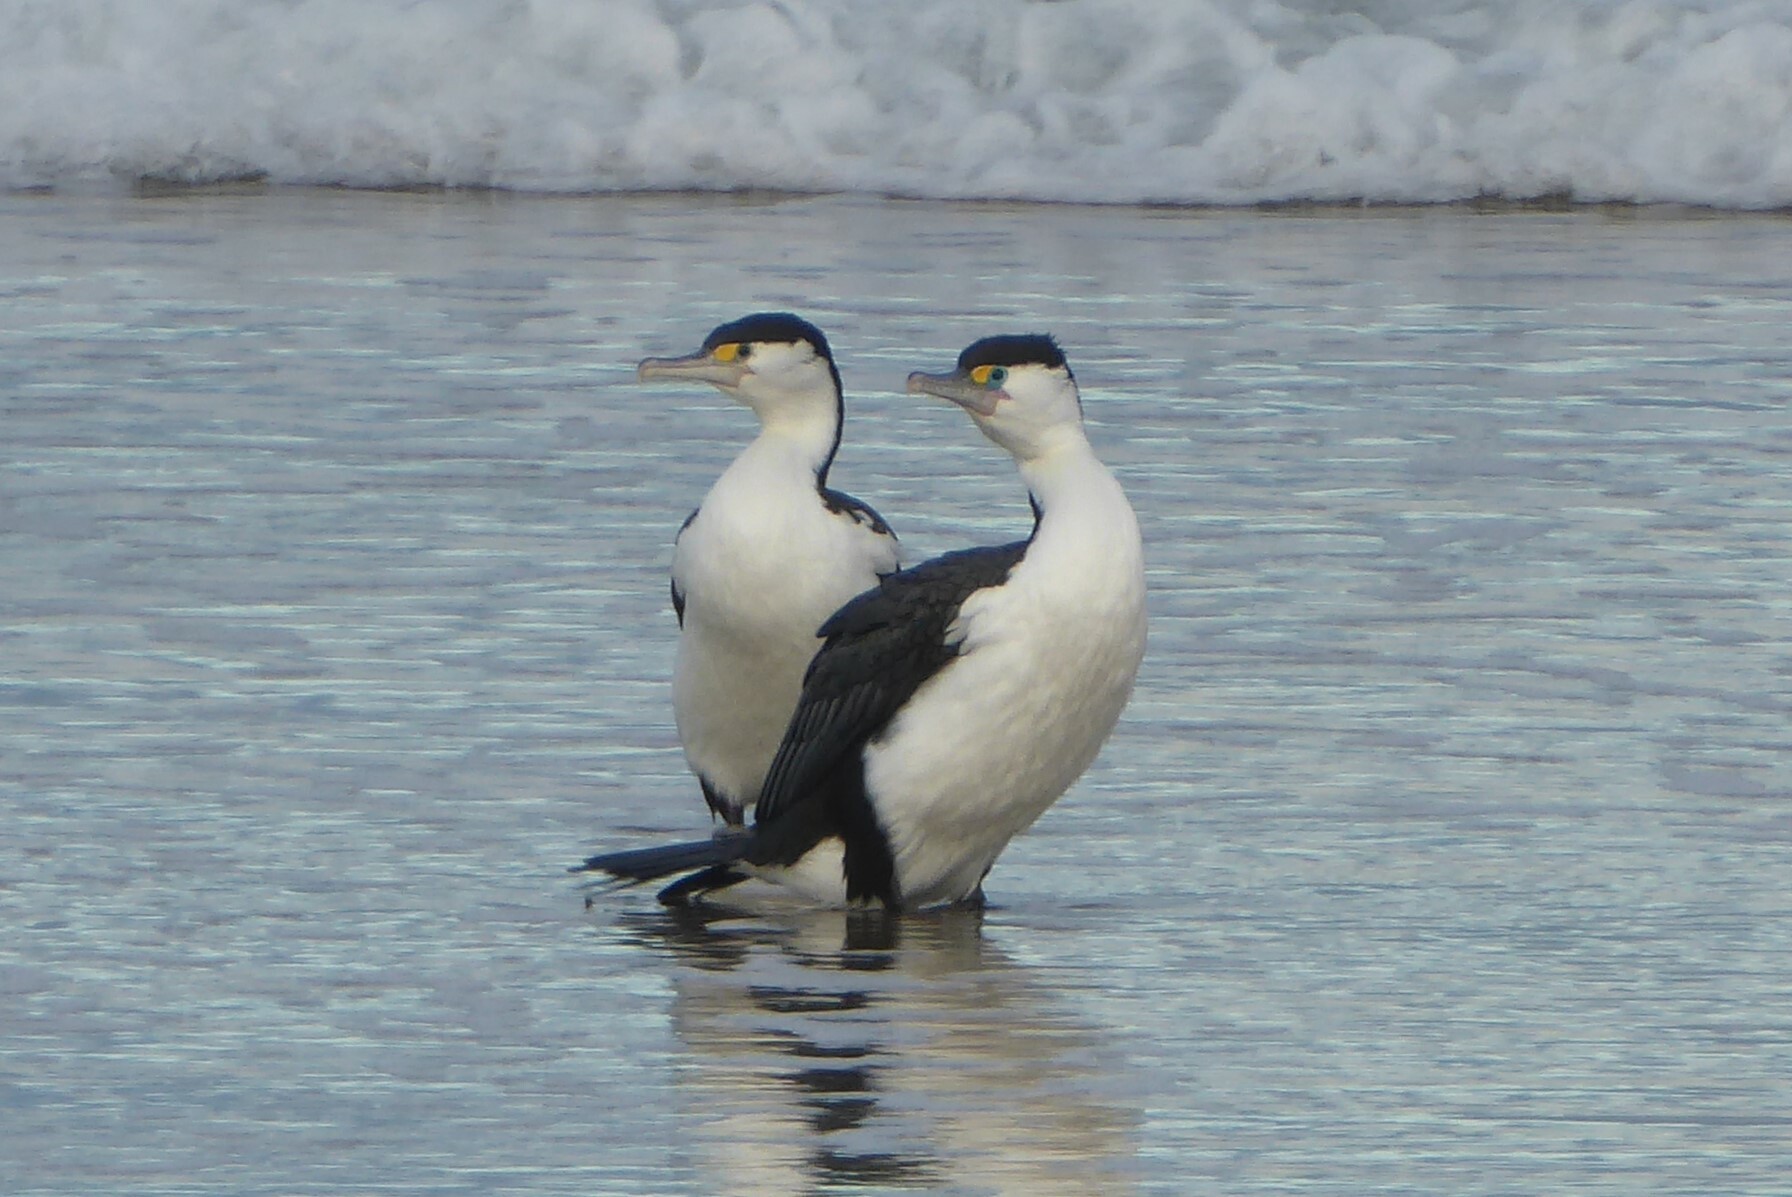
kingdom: Animalia
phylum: Chordata
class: Aves
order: Suliformes
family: Phalacrocoracidae
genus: Phalacrocorax
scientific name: Phalacrocorax varius
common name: Pied cormorant
